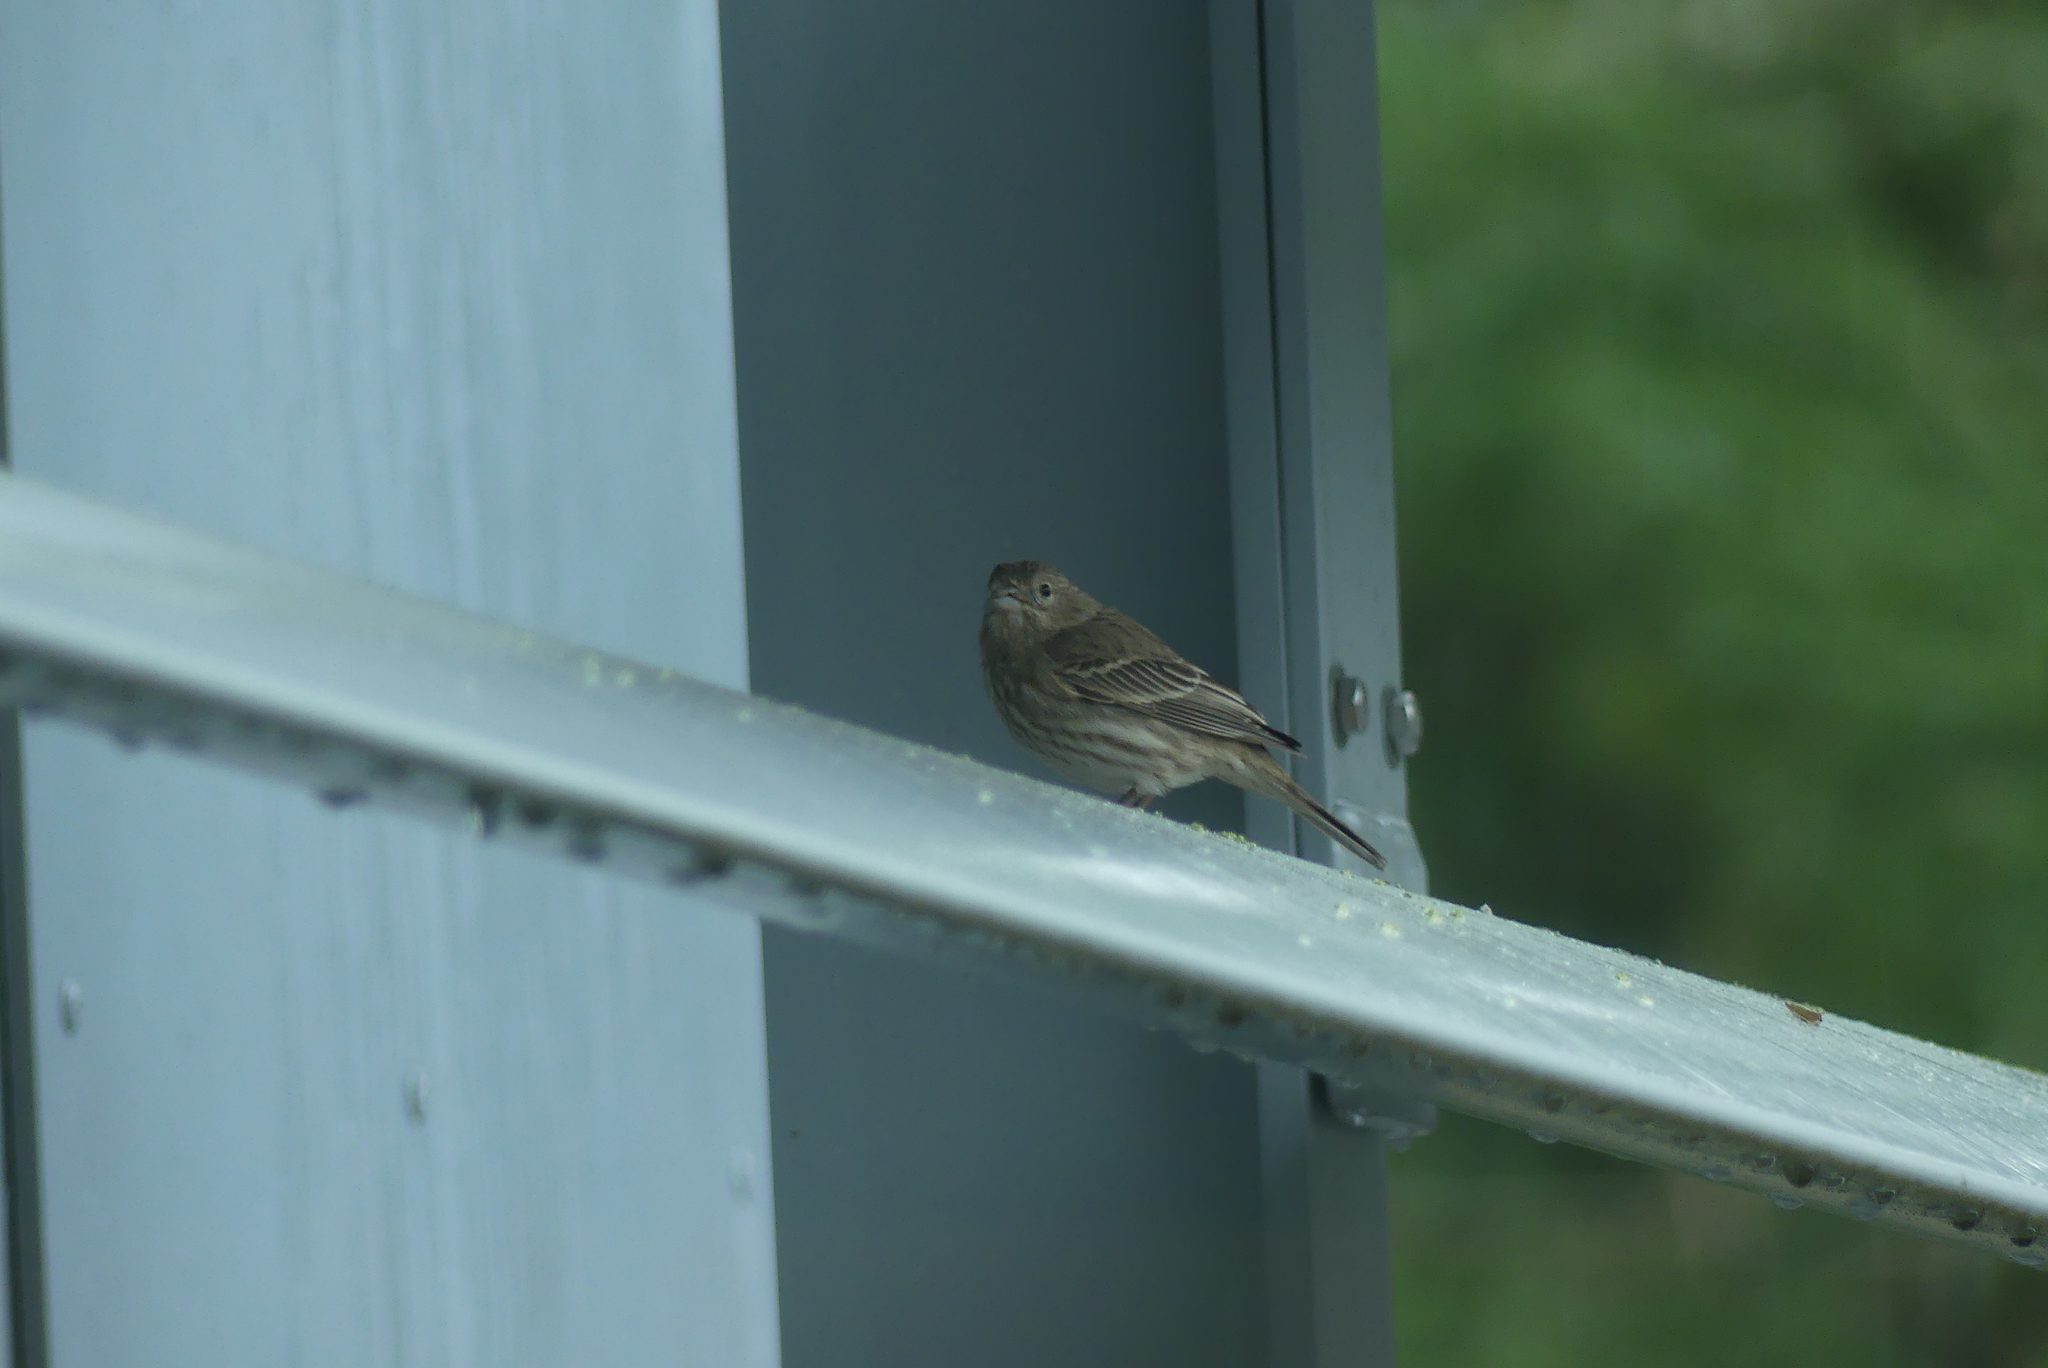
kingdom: Animalia
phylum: Chordata
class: Aves
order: Passeriformes
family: Fringillidae
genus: Haemorhous
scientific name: Haemorhous mexicanus
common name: House finch
